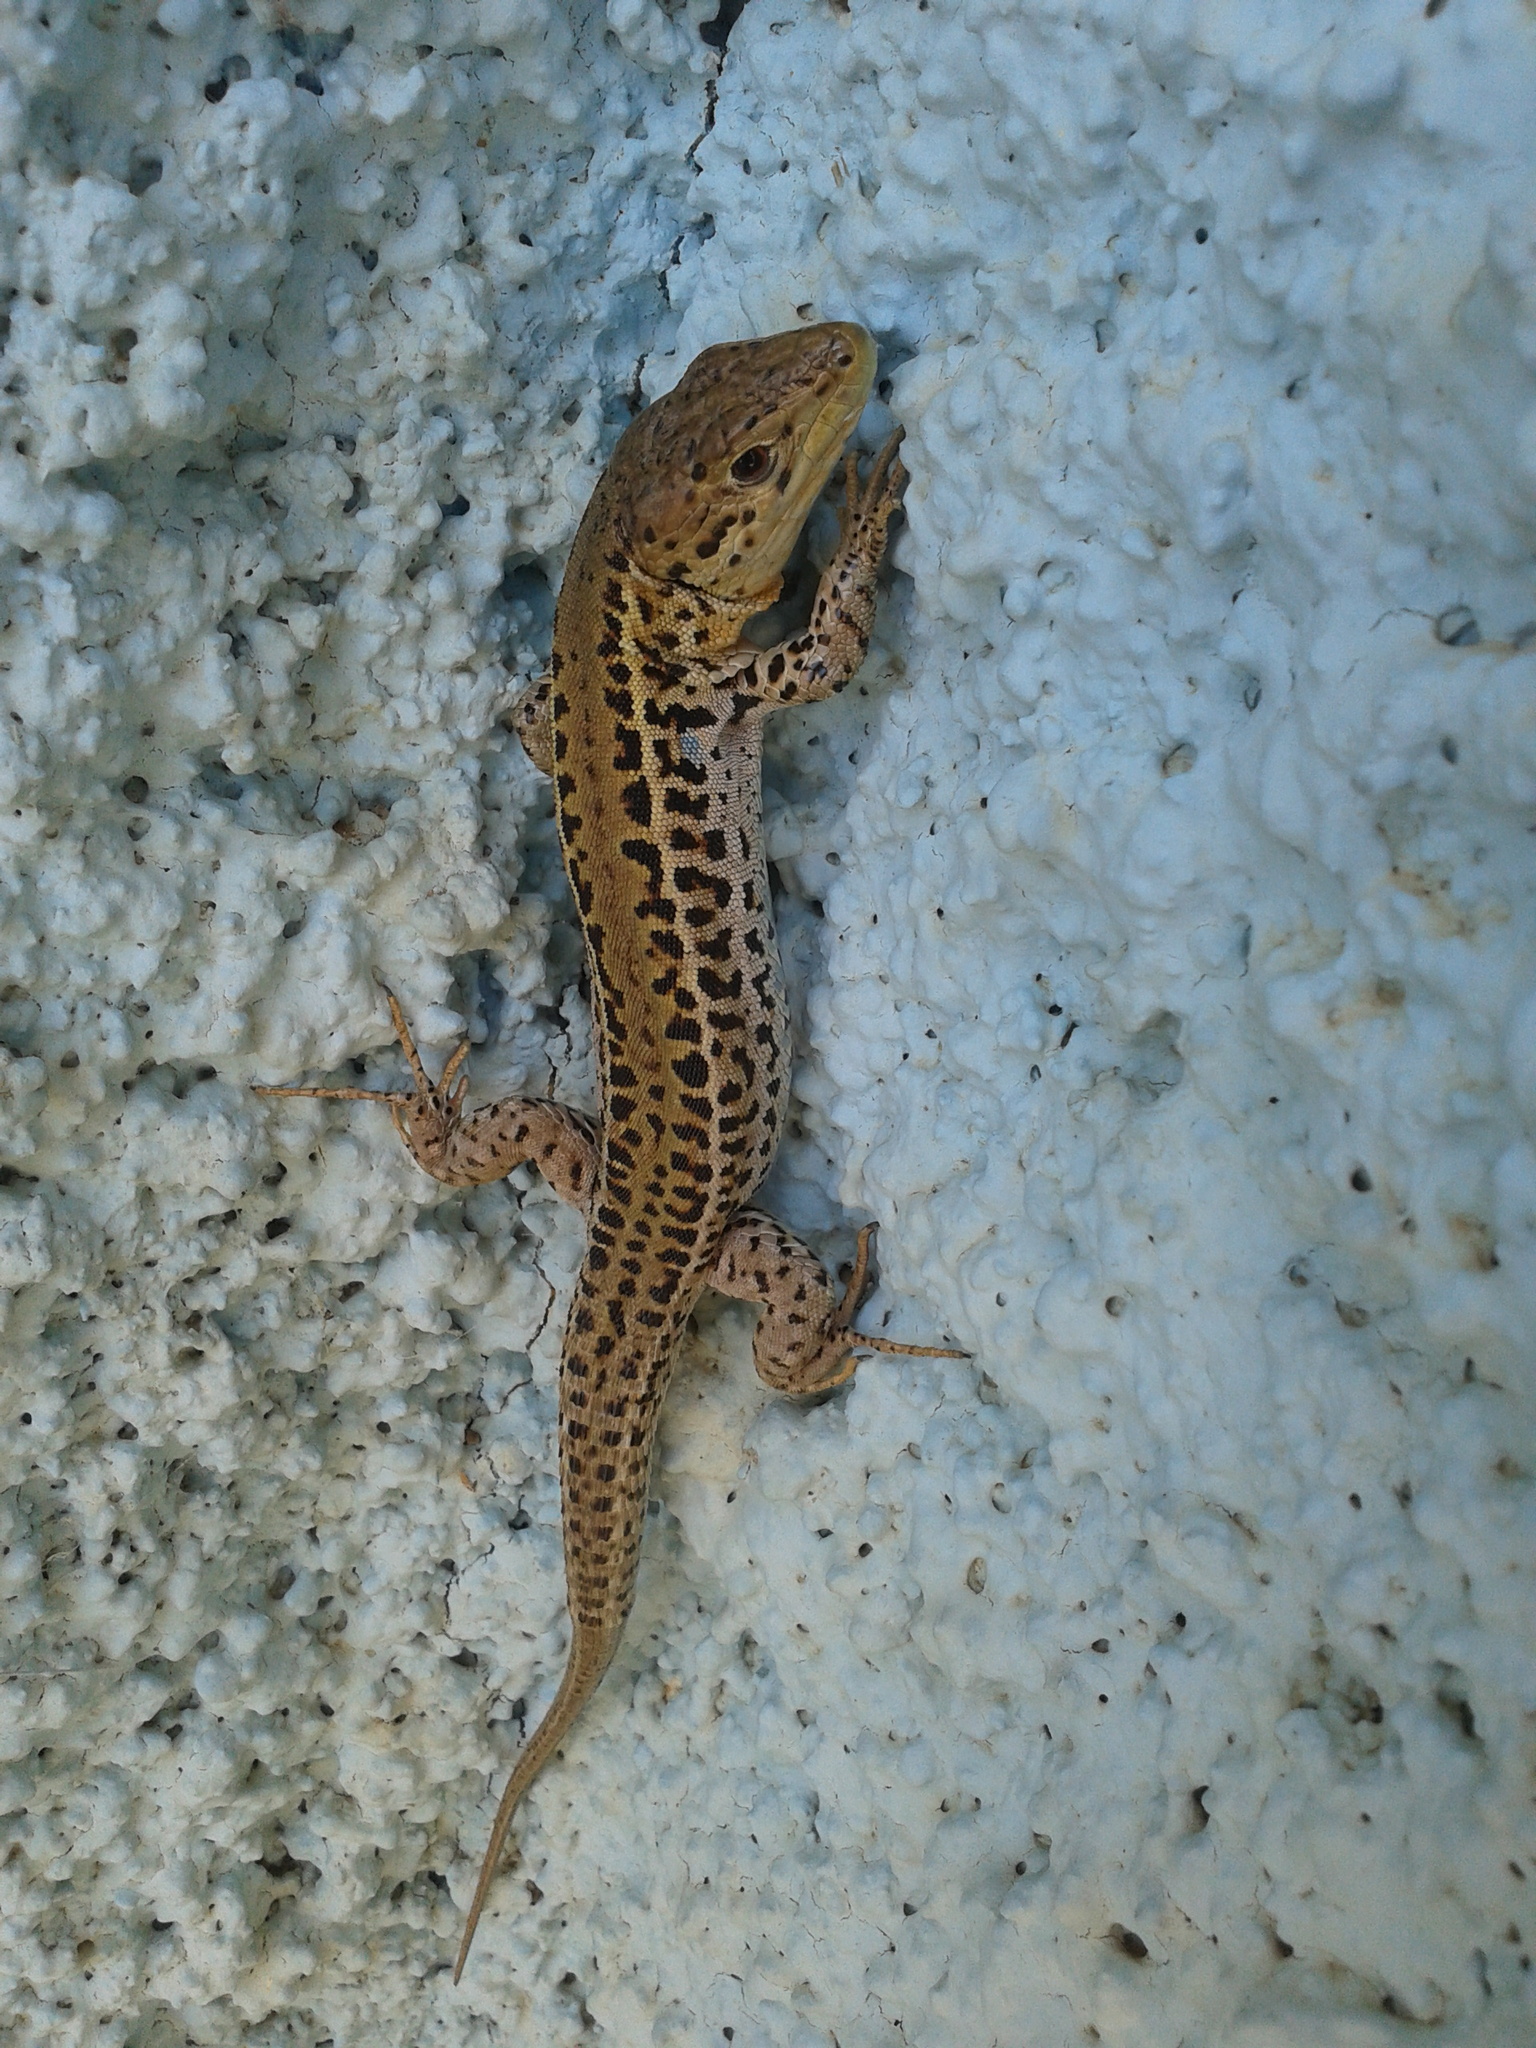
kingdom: Animalia
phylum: Chordata
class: Squamata
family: Lacertidae
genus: Podarcis
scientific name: Podarcis ionicus
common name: Ionian wall lizard
